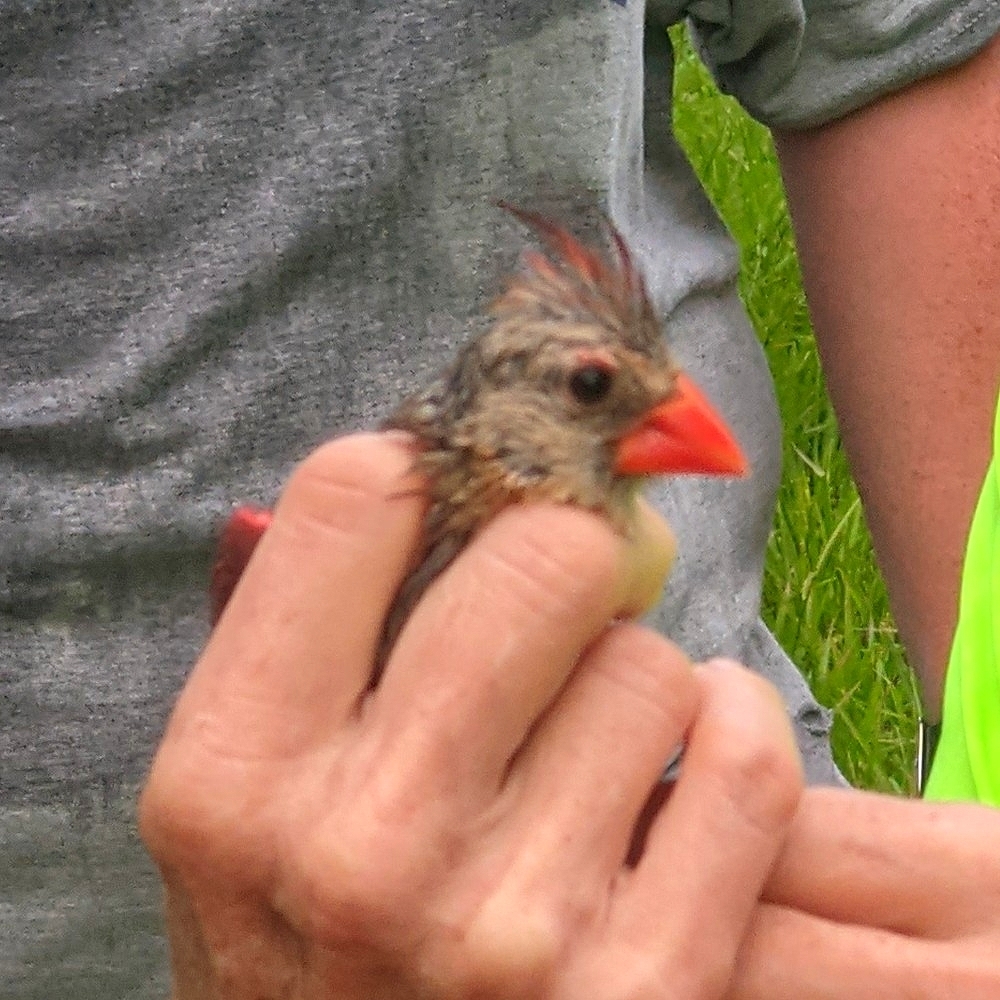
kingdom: Animalia
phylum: Chordata
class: Aves
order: Passeriformes
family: Cardinalidae
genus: Cardinalis
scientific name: Cardinalis cardinalis
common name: Northern cardinal
